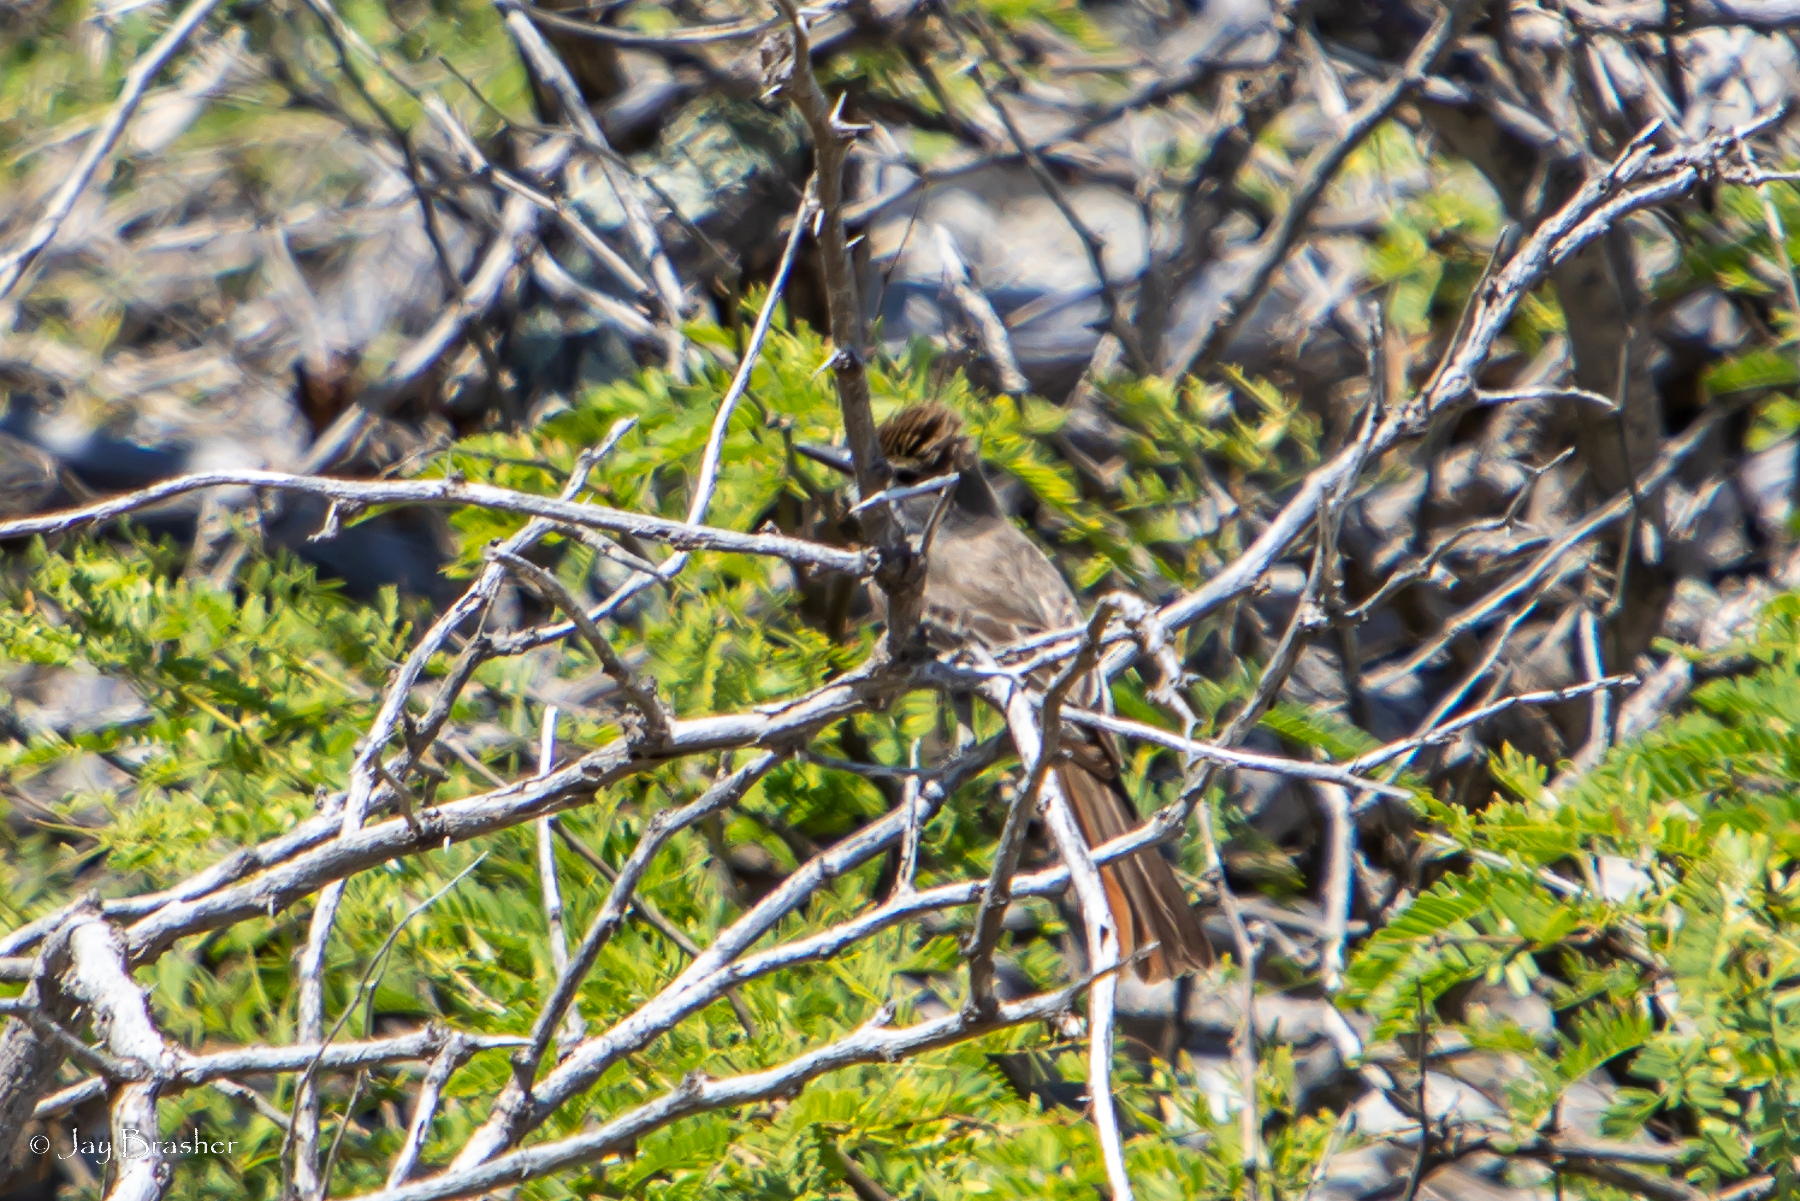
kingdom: Animalia
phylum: Chordata
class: Aves
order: Passeriformes
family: Tyrannidae
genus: Myiarchus
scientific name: Myiarchus tyrannulus
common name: Brown-crested flycatcher
